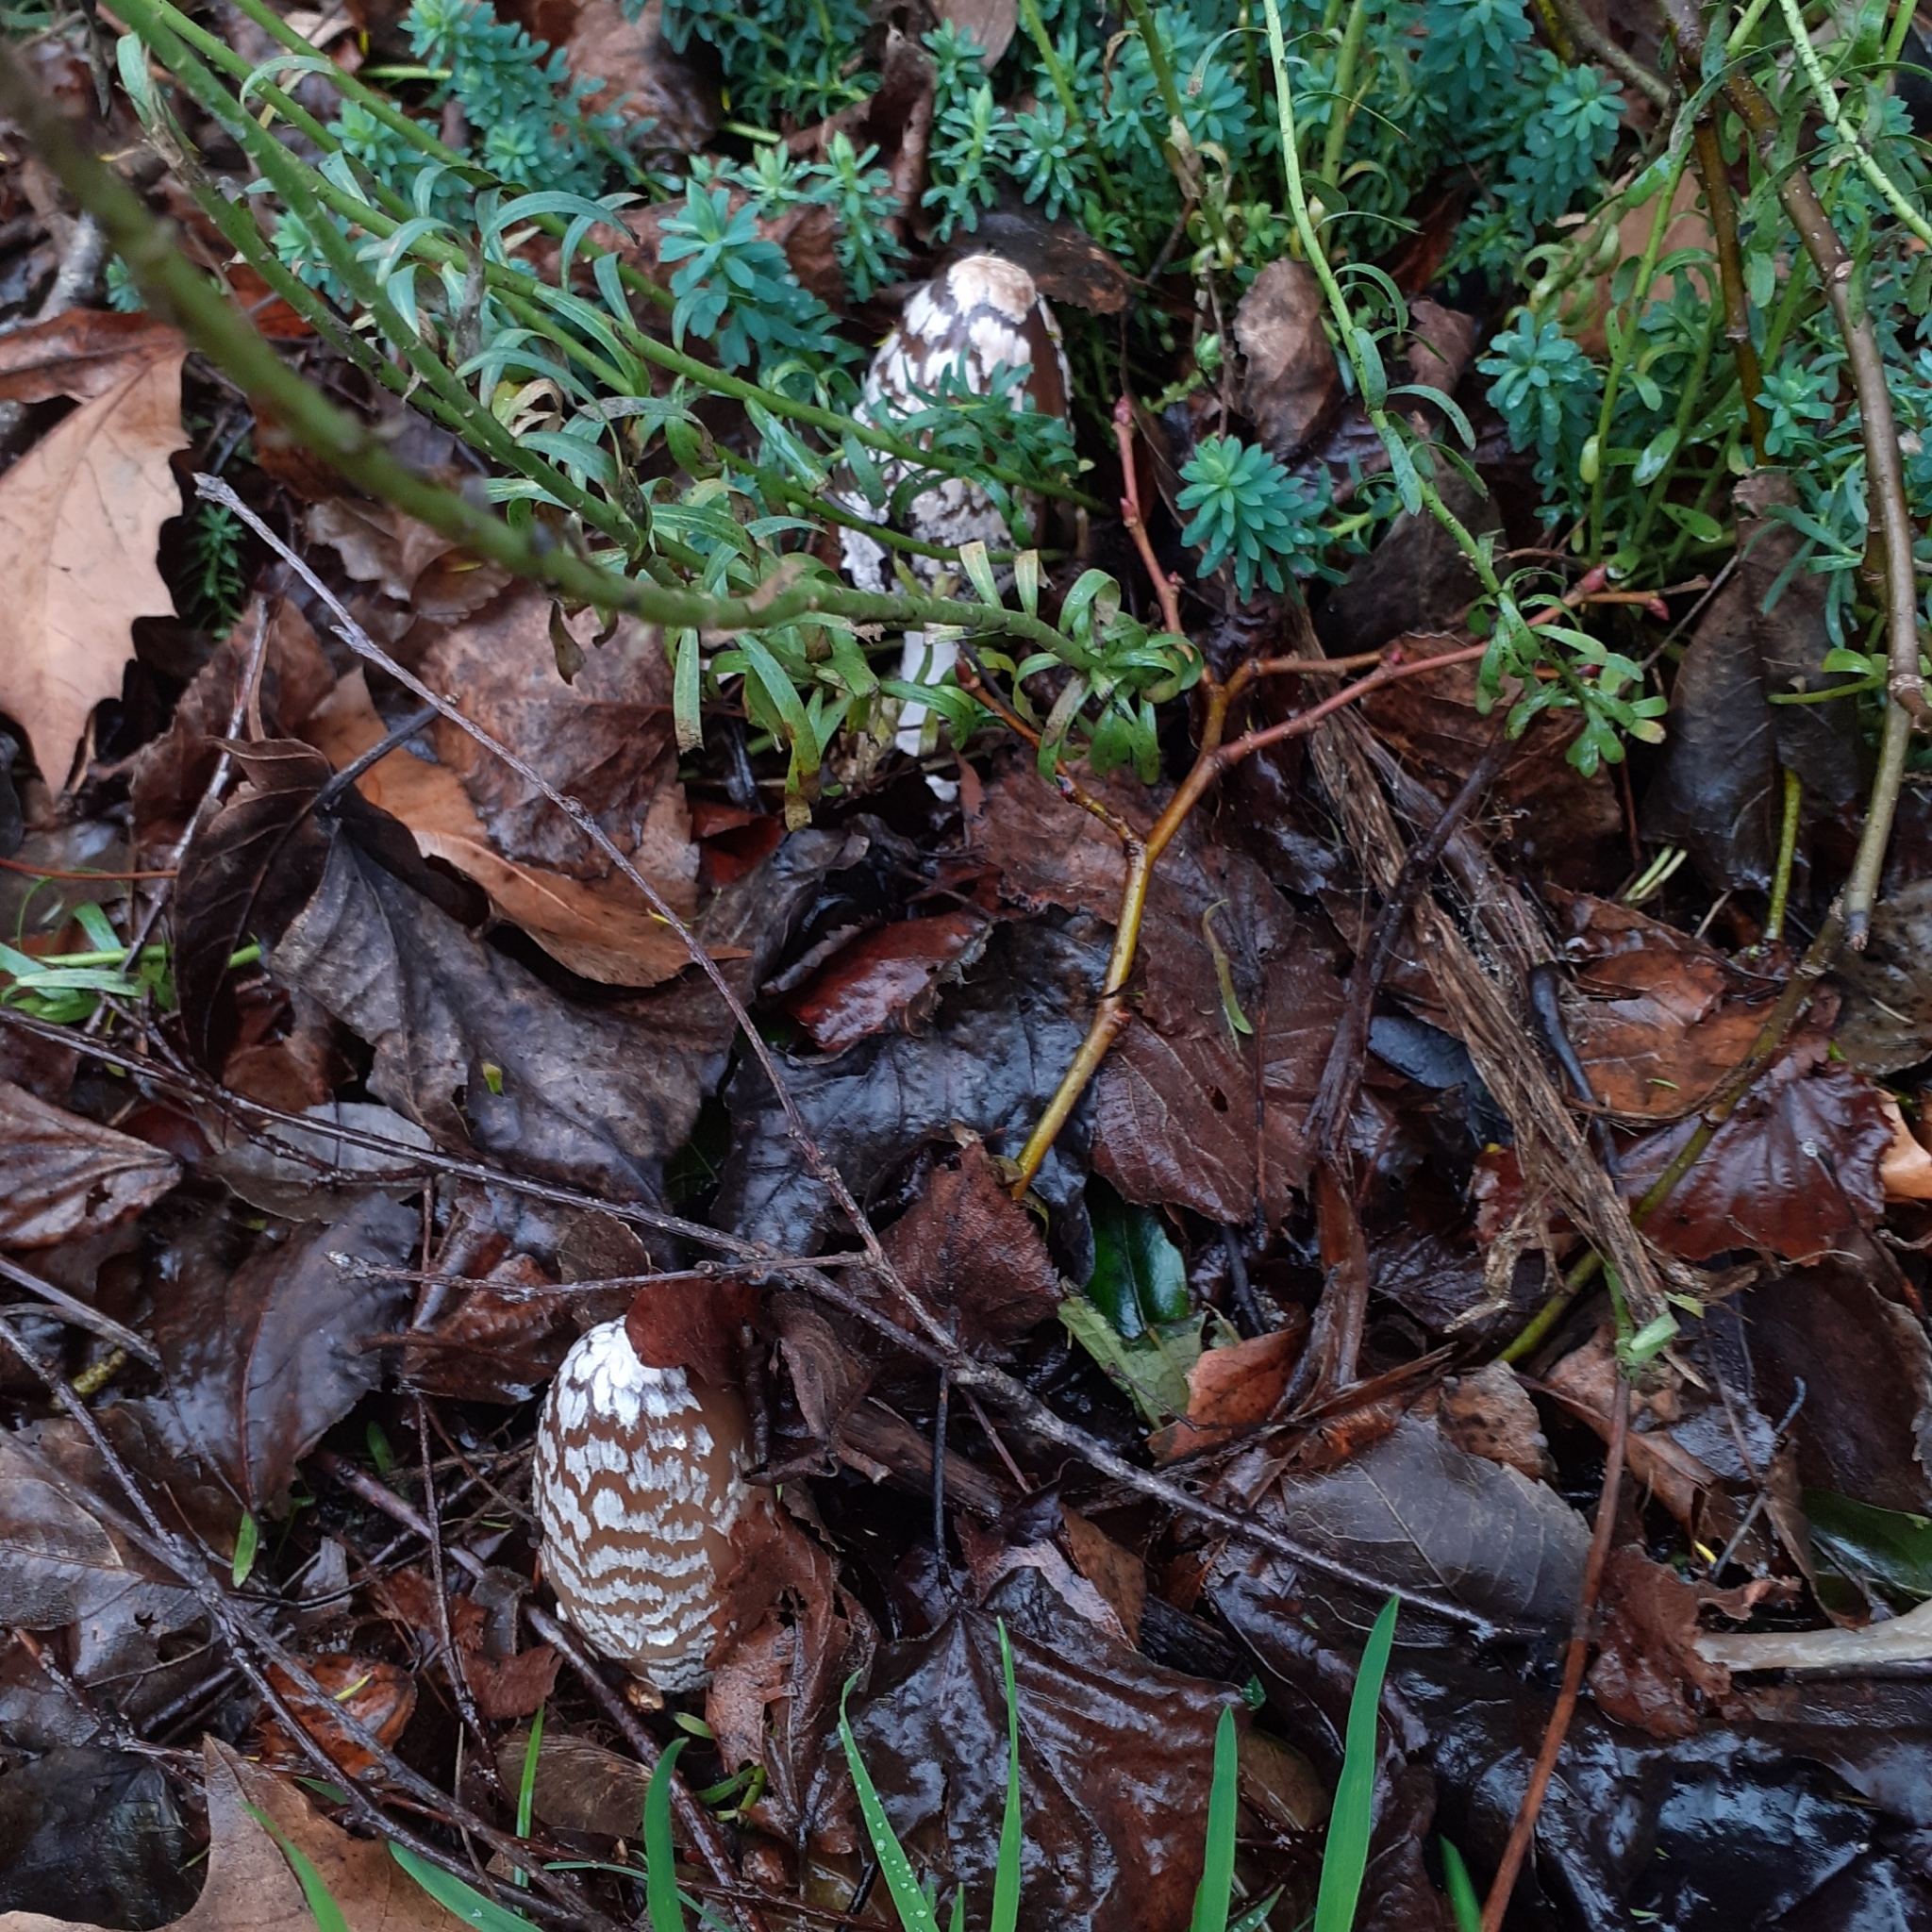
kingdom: Fungi
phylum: Basidiomycota
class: Agaricomycetes
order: Agaricales
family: Psathyrellaceae
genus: Coprinopsis
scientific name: Coprinopsis picacea
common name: Magpie inkcap
